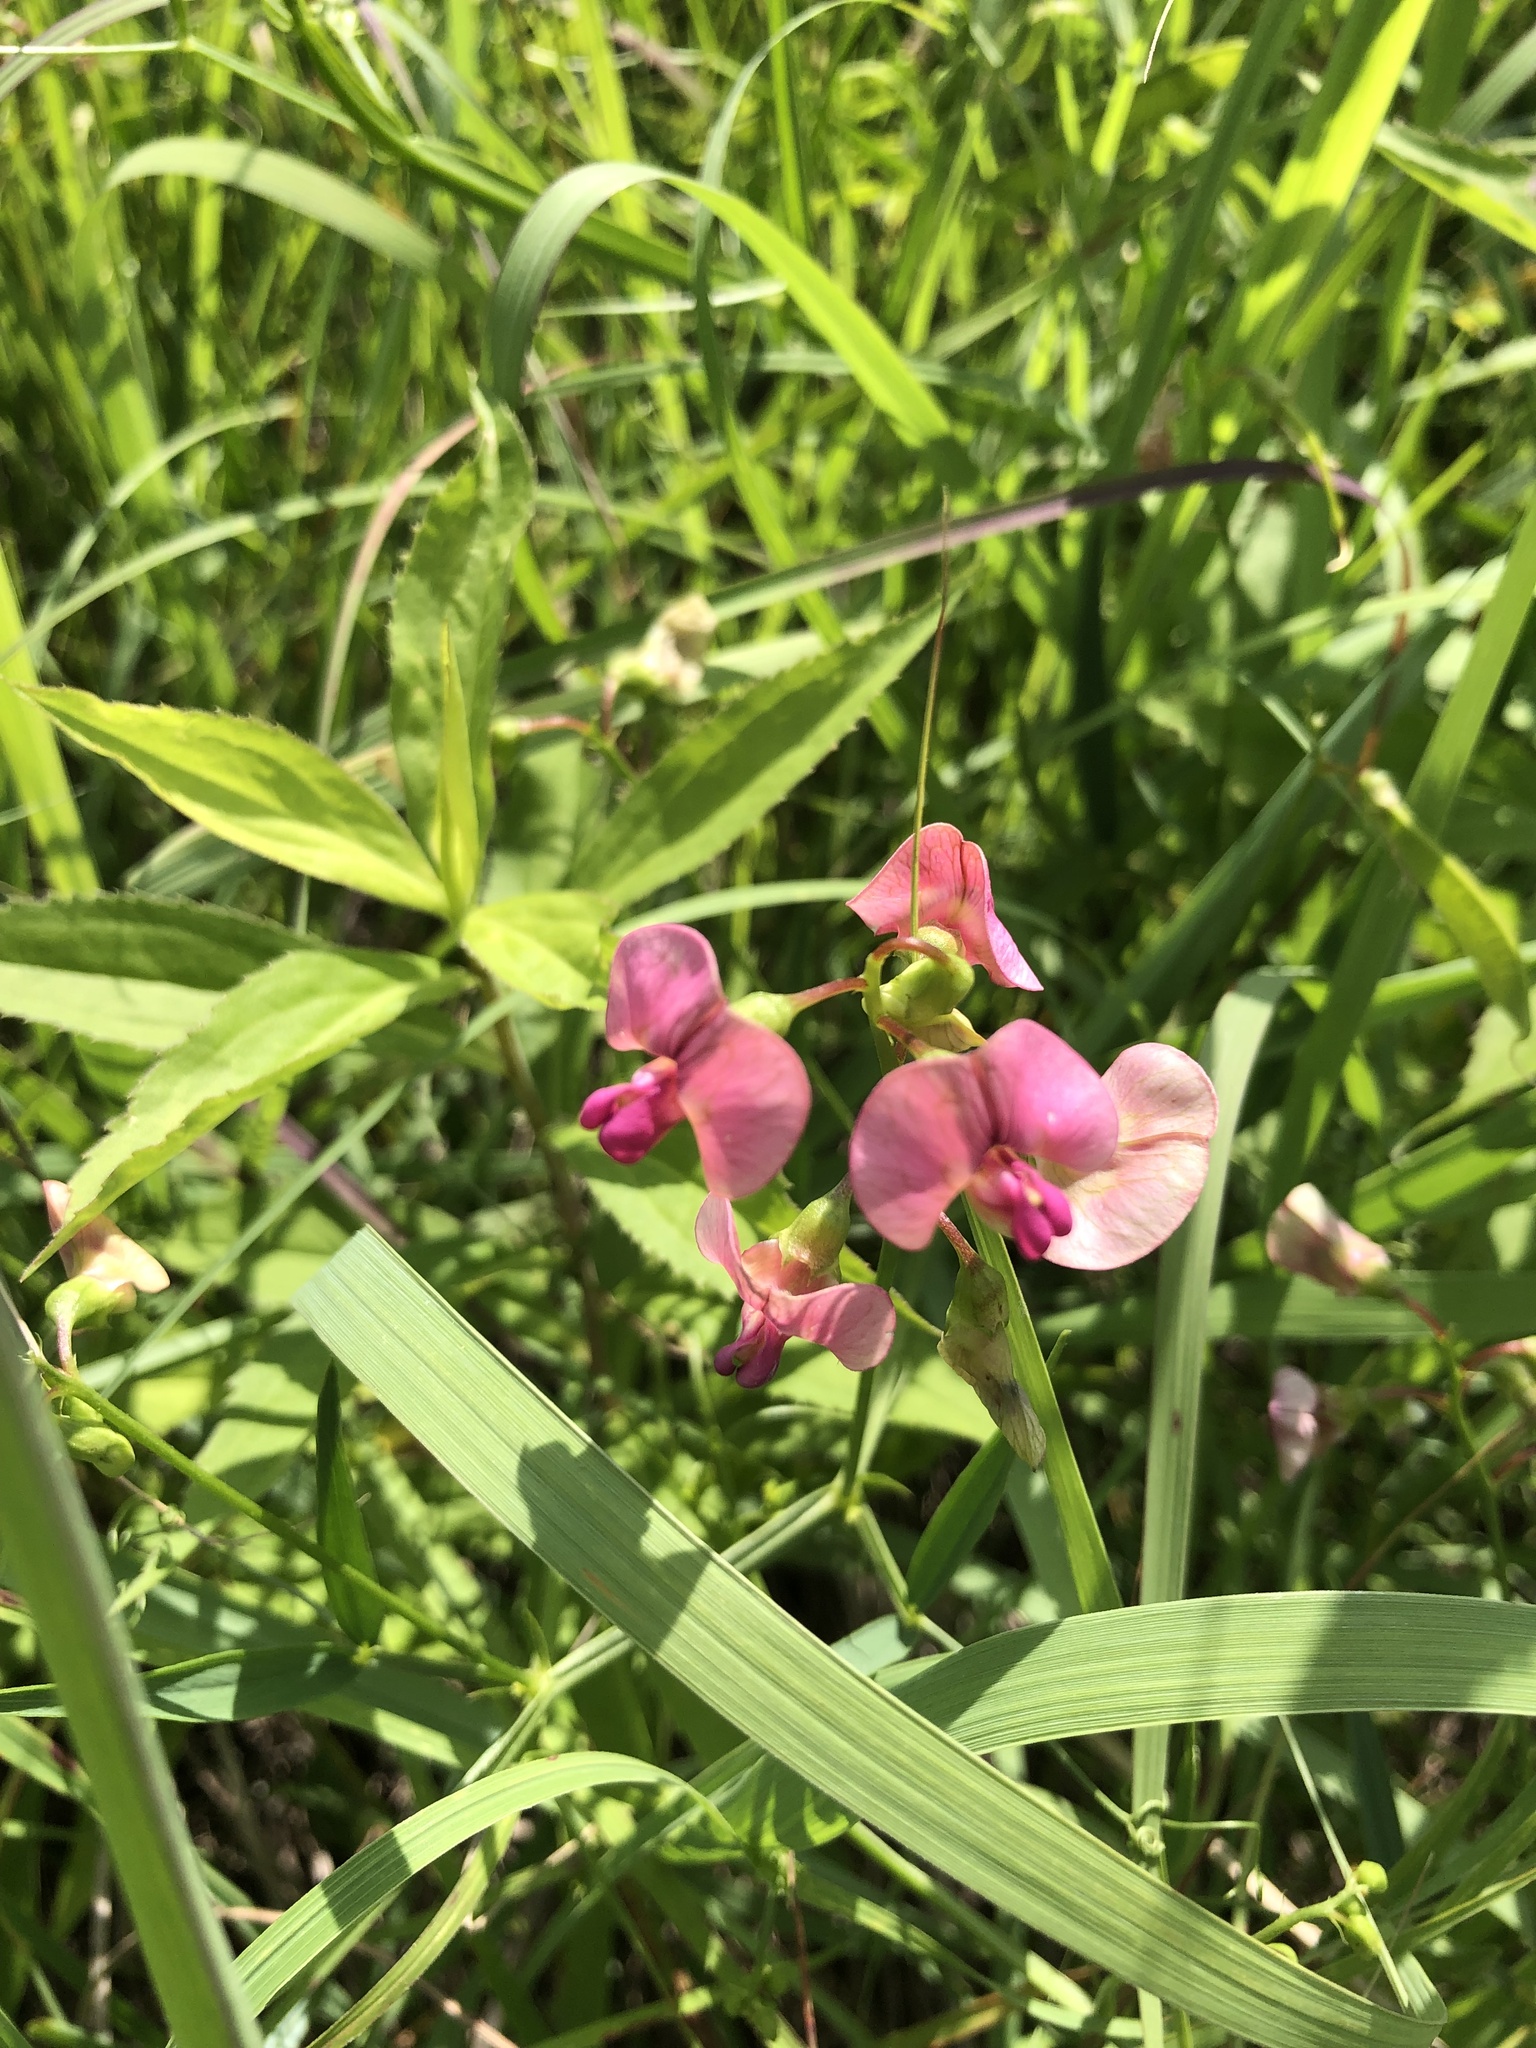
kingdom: Plantae
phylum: Tracheophyta
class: Magnoliopsida
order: Fabales
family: Fabaceae
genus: Lathyrus
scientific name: Lathyrus sylvestris
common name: Flat pea
